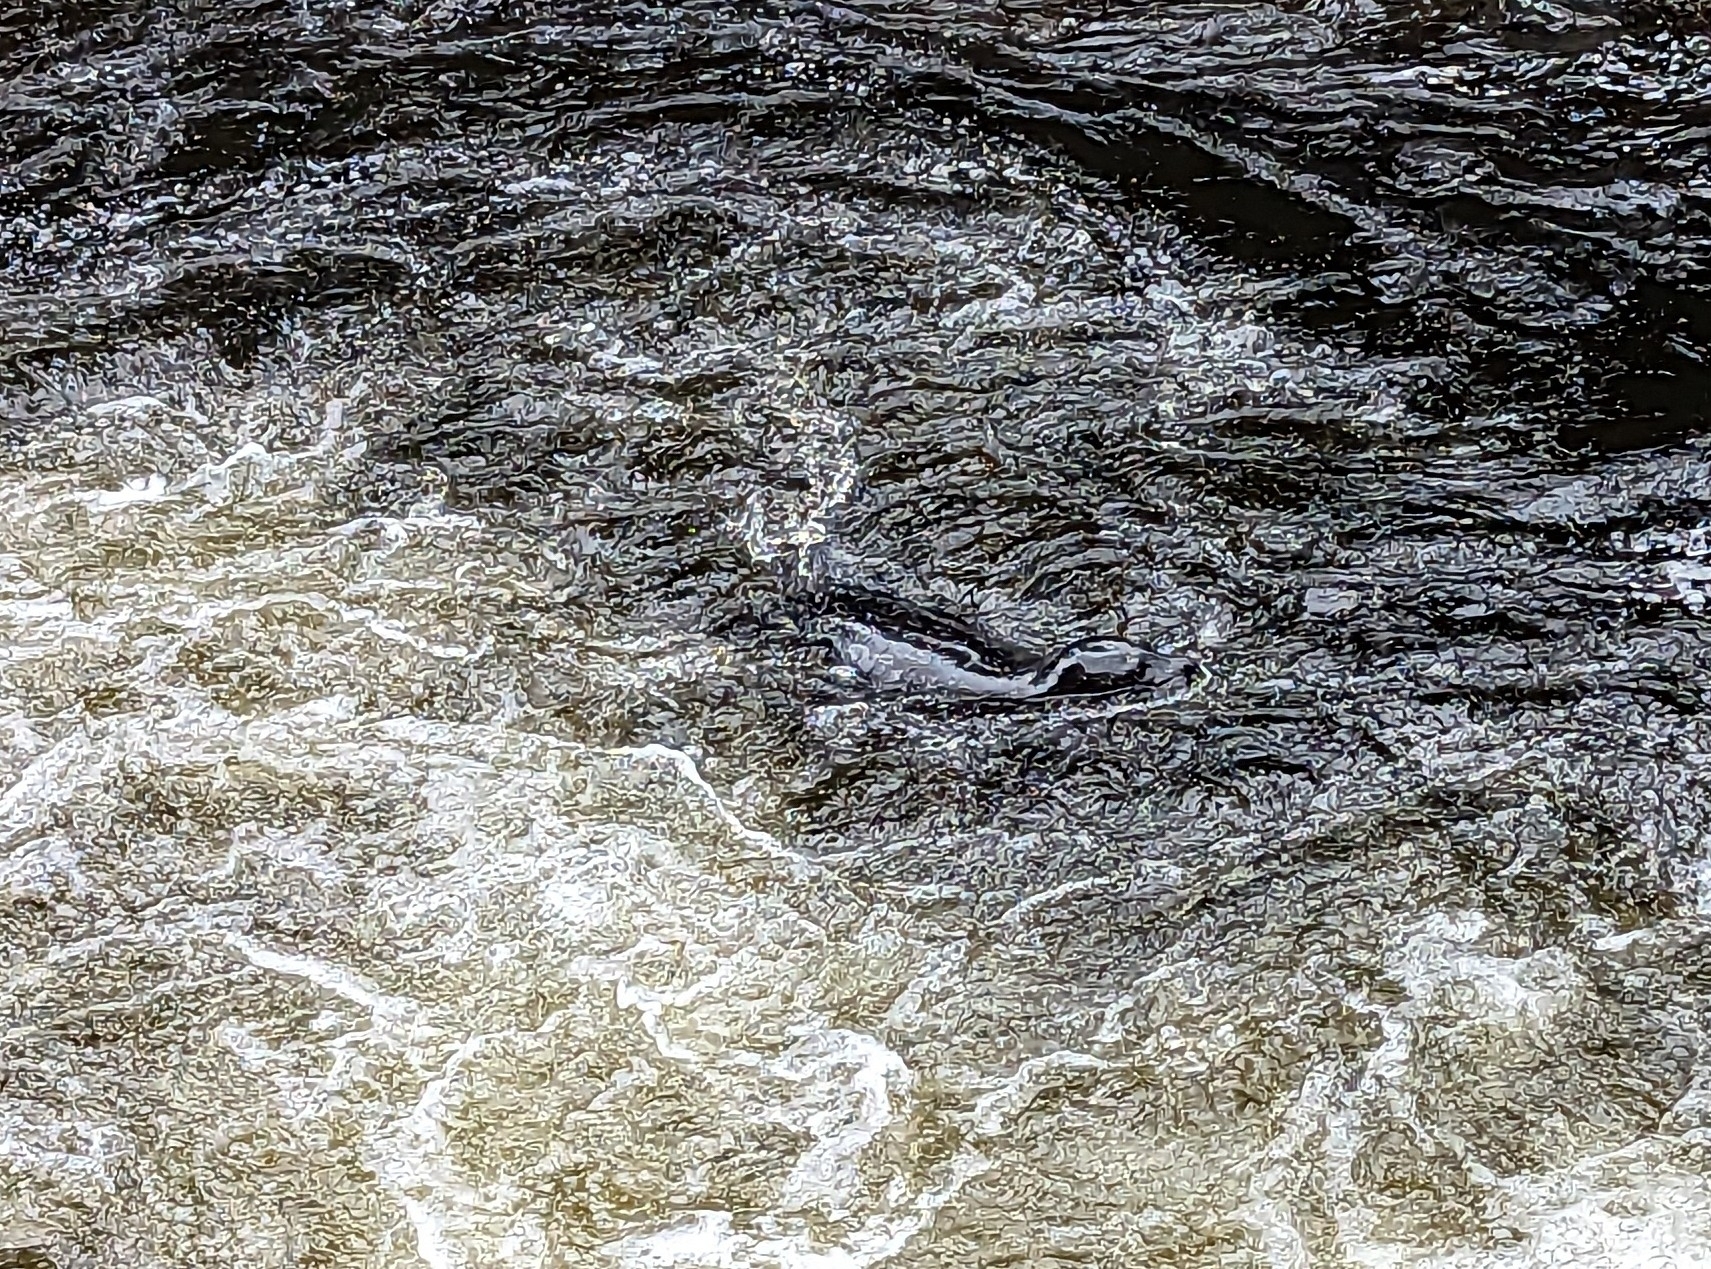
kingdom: Animalia
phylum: Chordata
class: Mammalia
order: Carnivora
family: Phocidae
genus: Phoca
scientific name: Phoca vitulina
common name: Harbor seal
